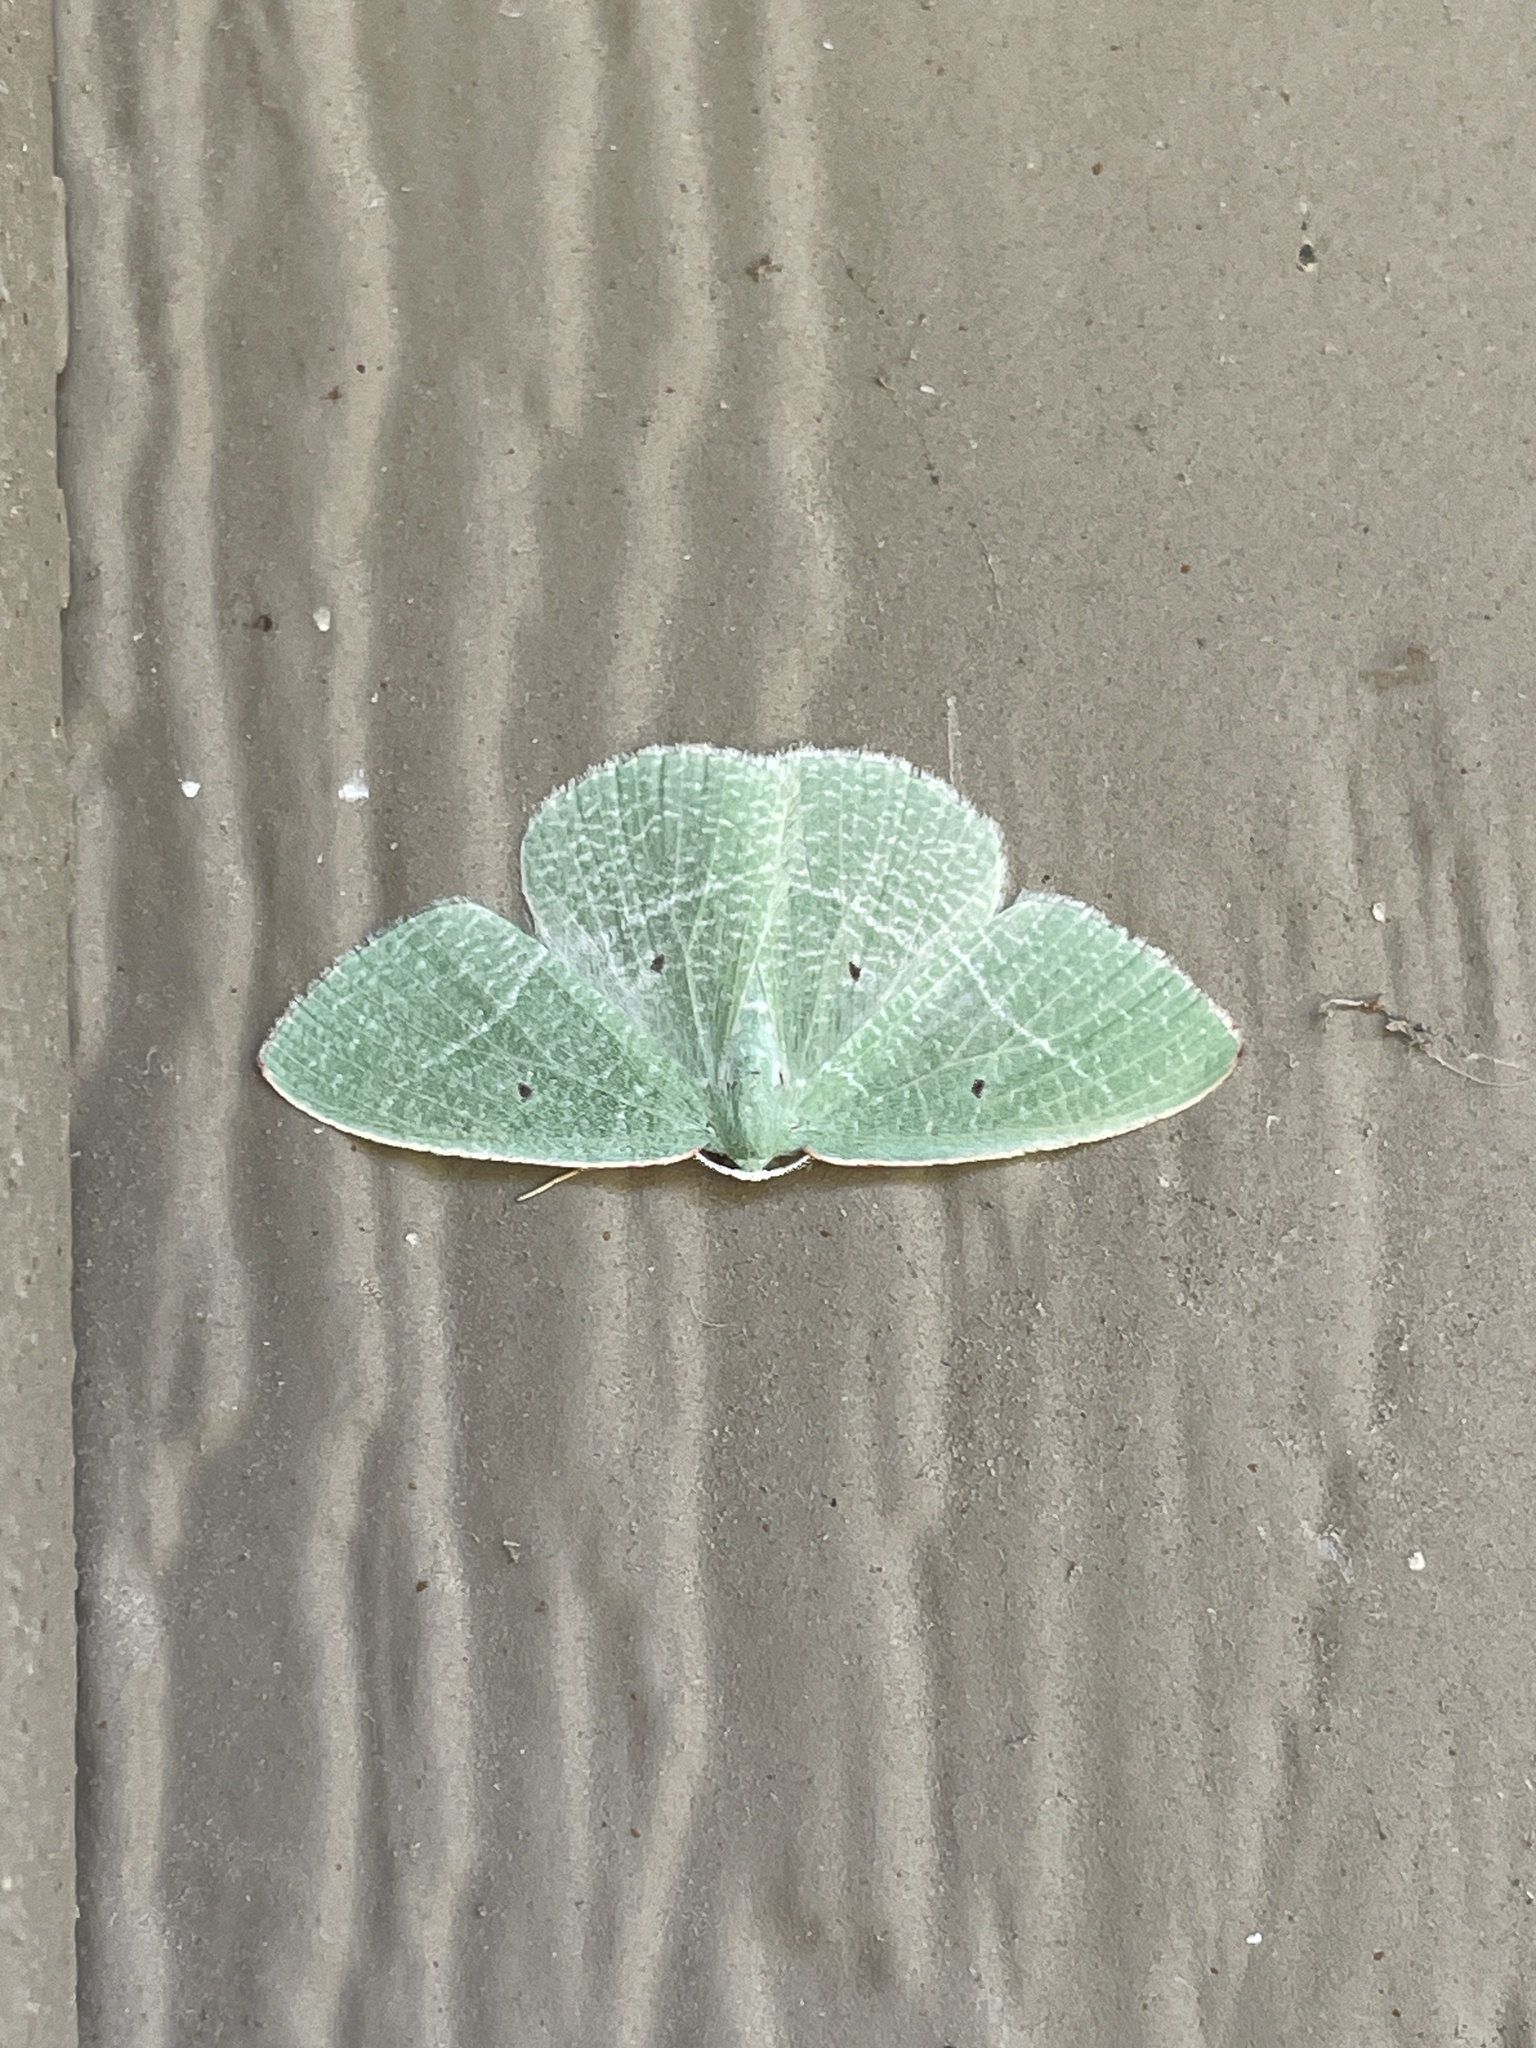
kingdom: Animalia
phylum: Arthropoda
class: Insecta
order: Lepidoptera
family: Geometridae
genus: Nemoria
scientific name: Nemoria pistaciaria
